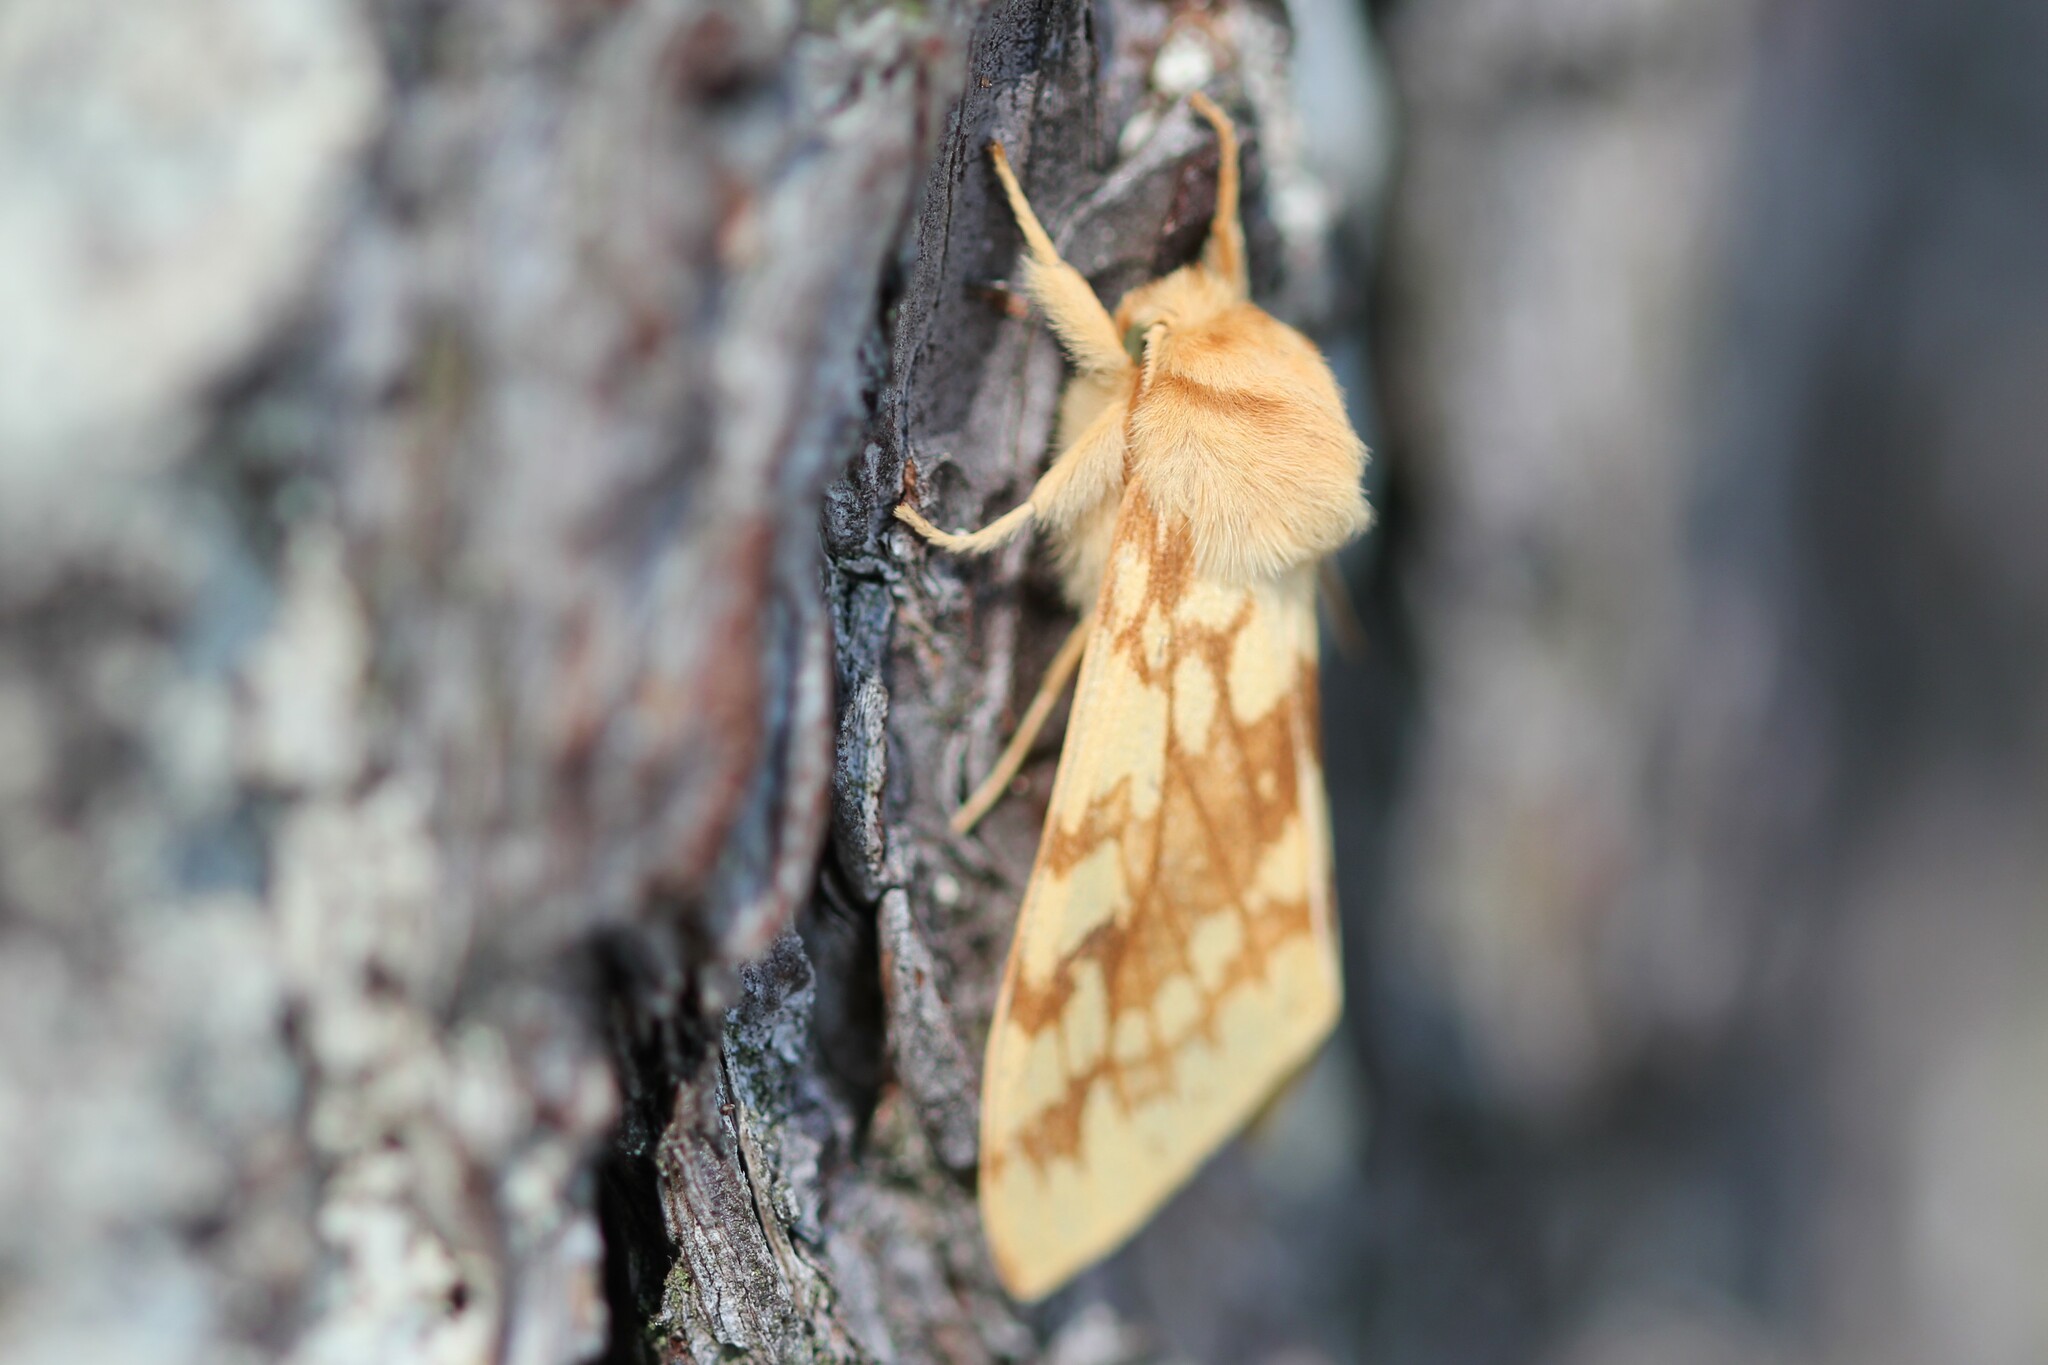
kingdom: Animalia
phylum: Arthropoda
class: Insecta
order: Lepidoptera
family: Erebidae
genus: Lophocampa
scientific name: Lophocampa maculata
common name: Spotted tussock moth
